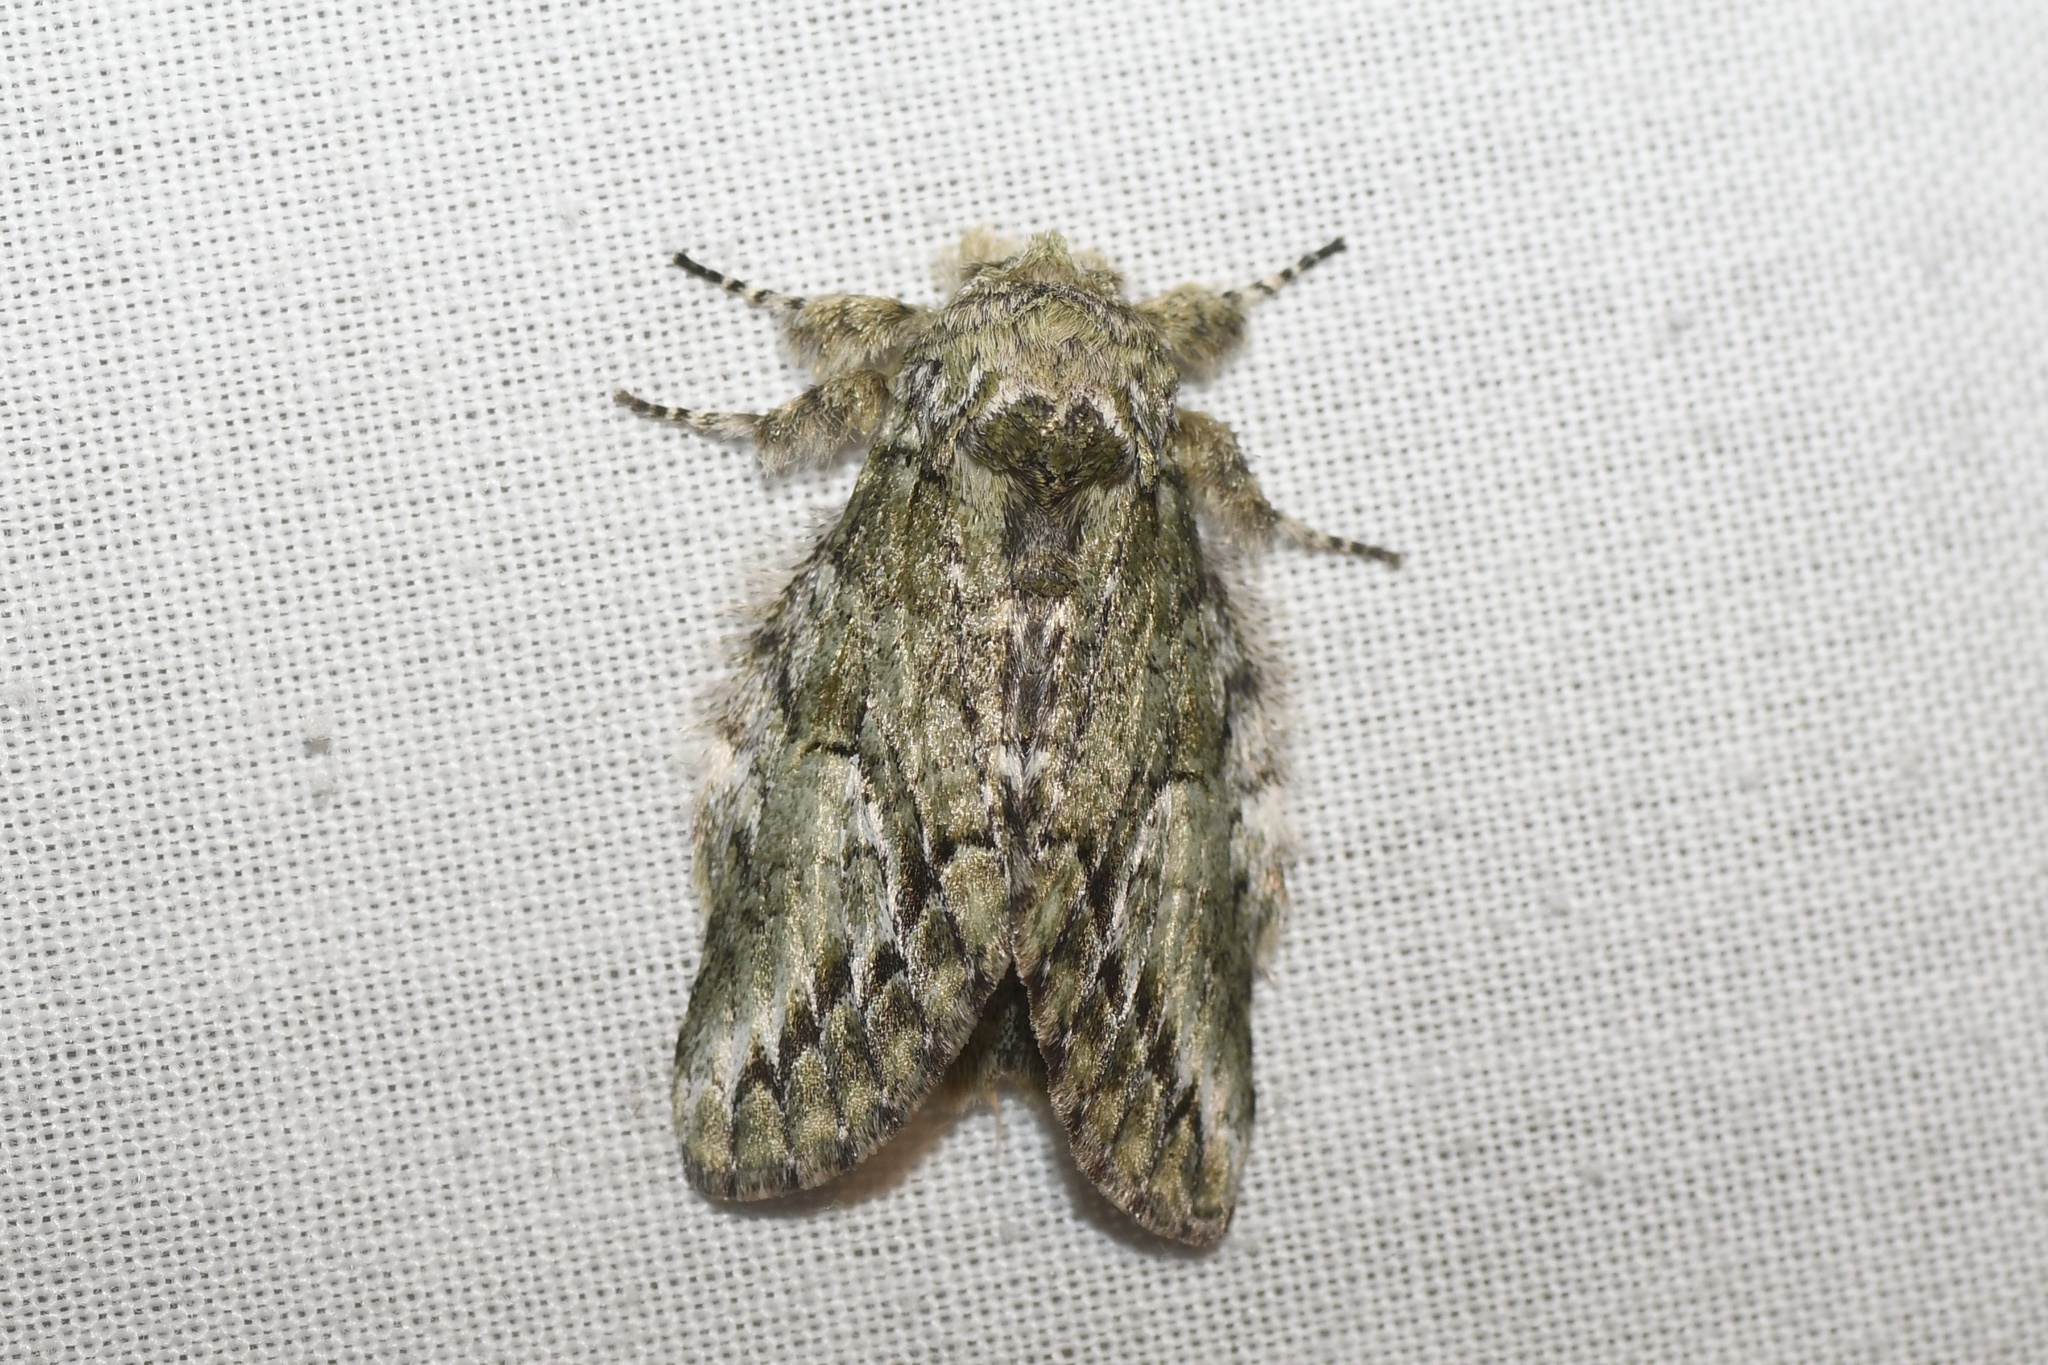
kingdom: Animalia
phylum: Arthropoda
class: Insecta
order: Lepidoptera
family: Notodontidae
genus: Heterocampa
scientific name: Heterocampa
